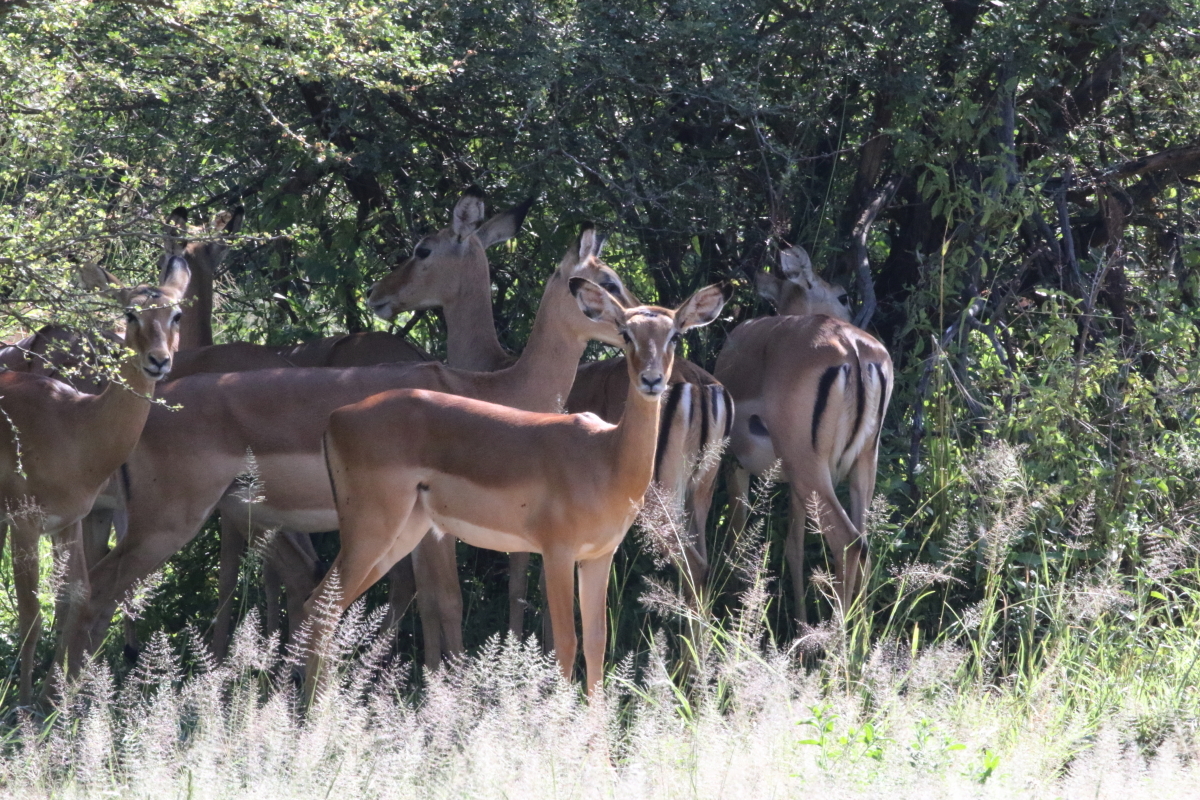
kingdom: Animalia
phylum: Chordata
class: Mammalia
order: Artiodactyla
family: Bovidae
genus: Aepyceros
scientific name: Aepyceros melampus
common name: Impala
